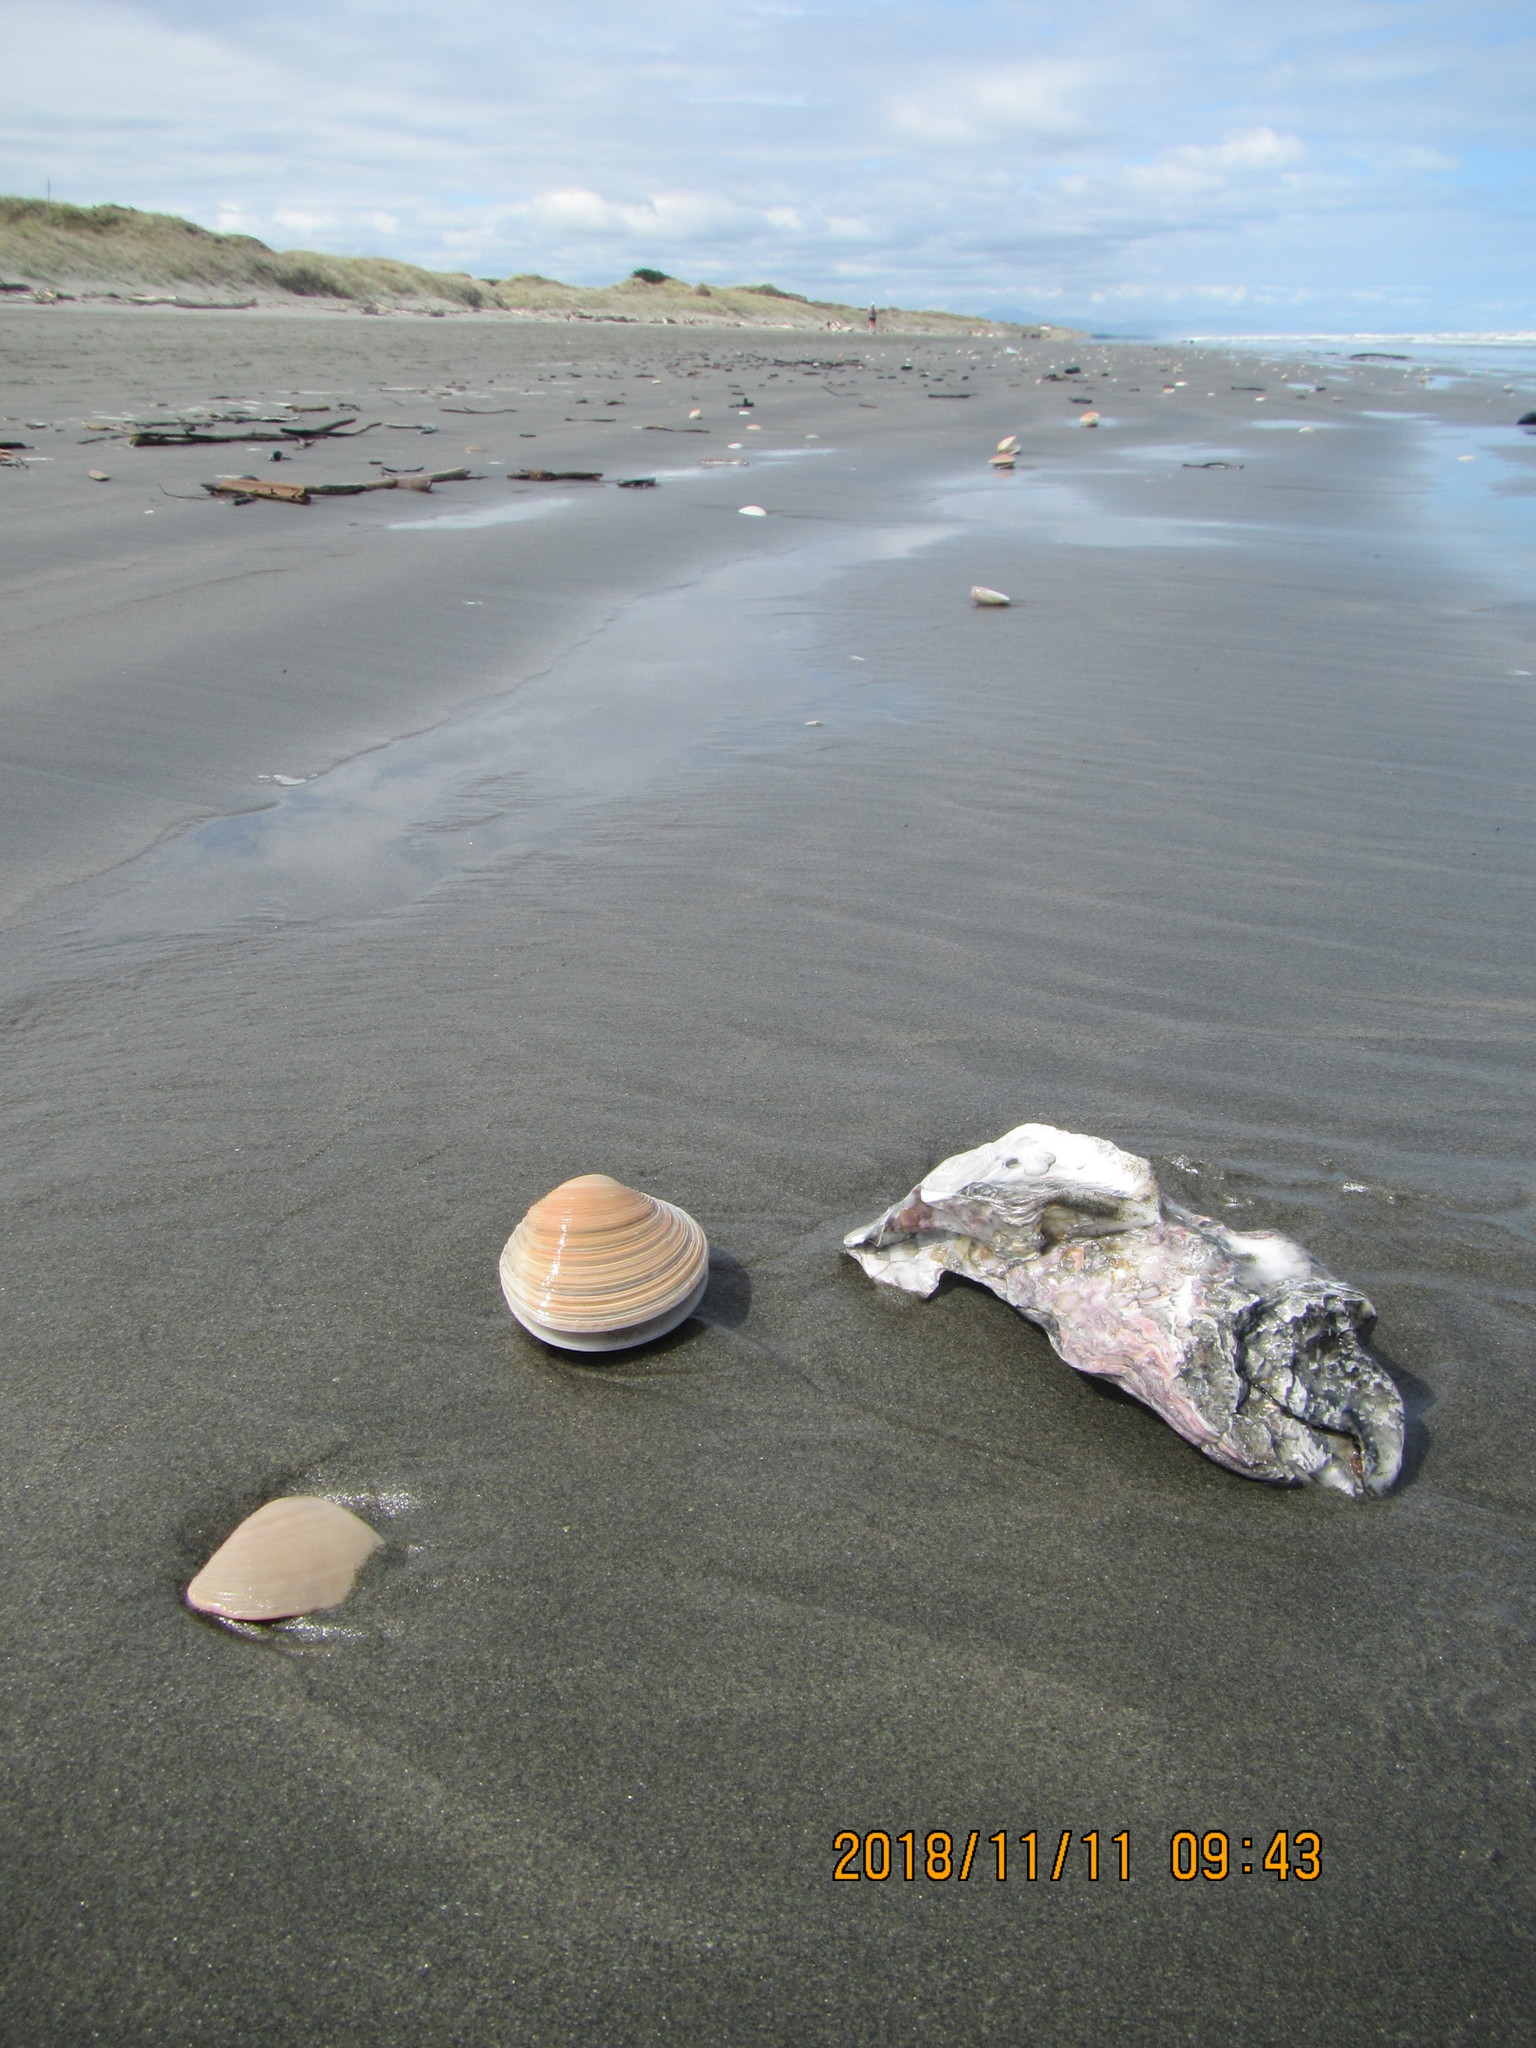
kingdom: Animalia
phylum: Mollusca
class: Bivalvia
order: Ostreida
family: Ostreidae
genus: Magallana
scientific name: Magallana gigas
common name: Pacific oyster
